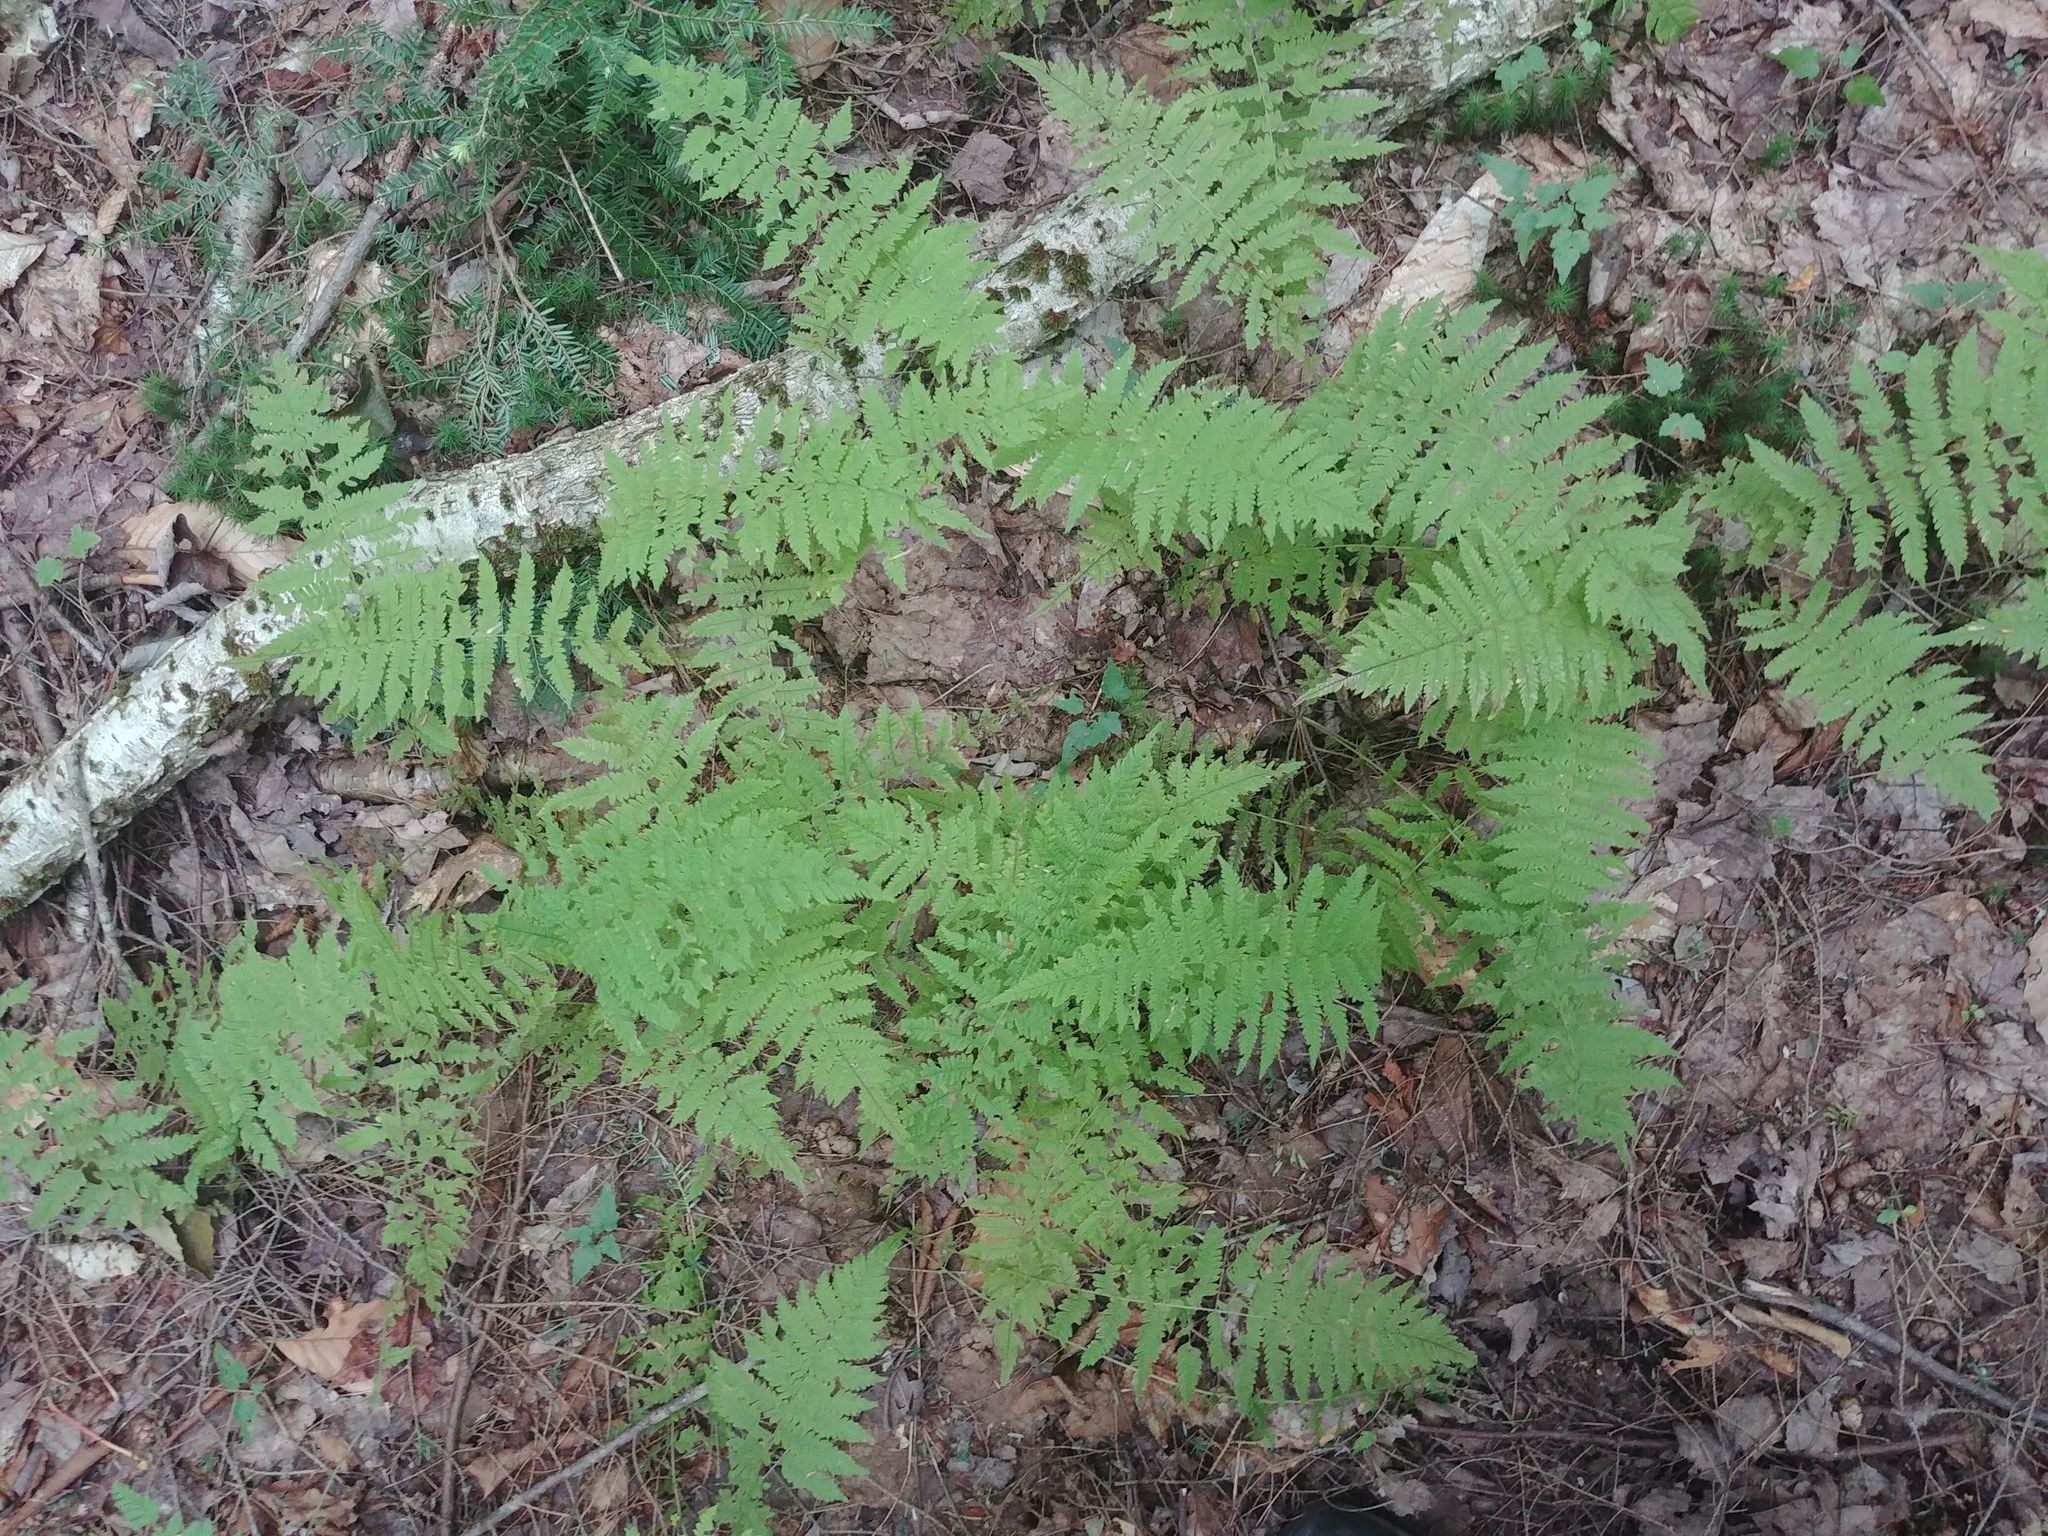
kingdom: Plantae
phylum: Tracheophyta
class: Polypodiopsida
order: Polypodiales
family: Thelypteridaceae
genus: Amauropelta
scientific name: Amauropelta noveboracensis
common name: New york fern
